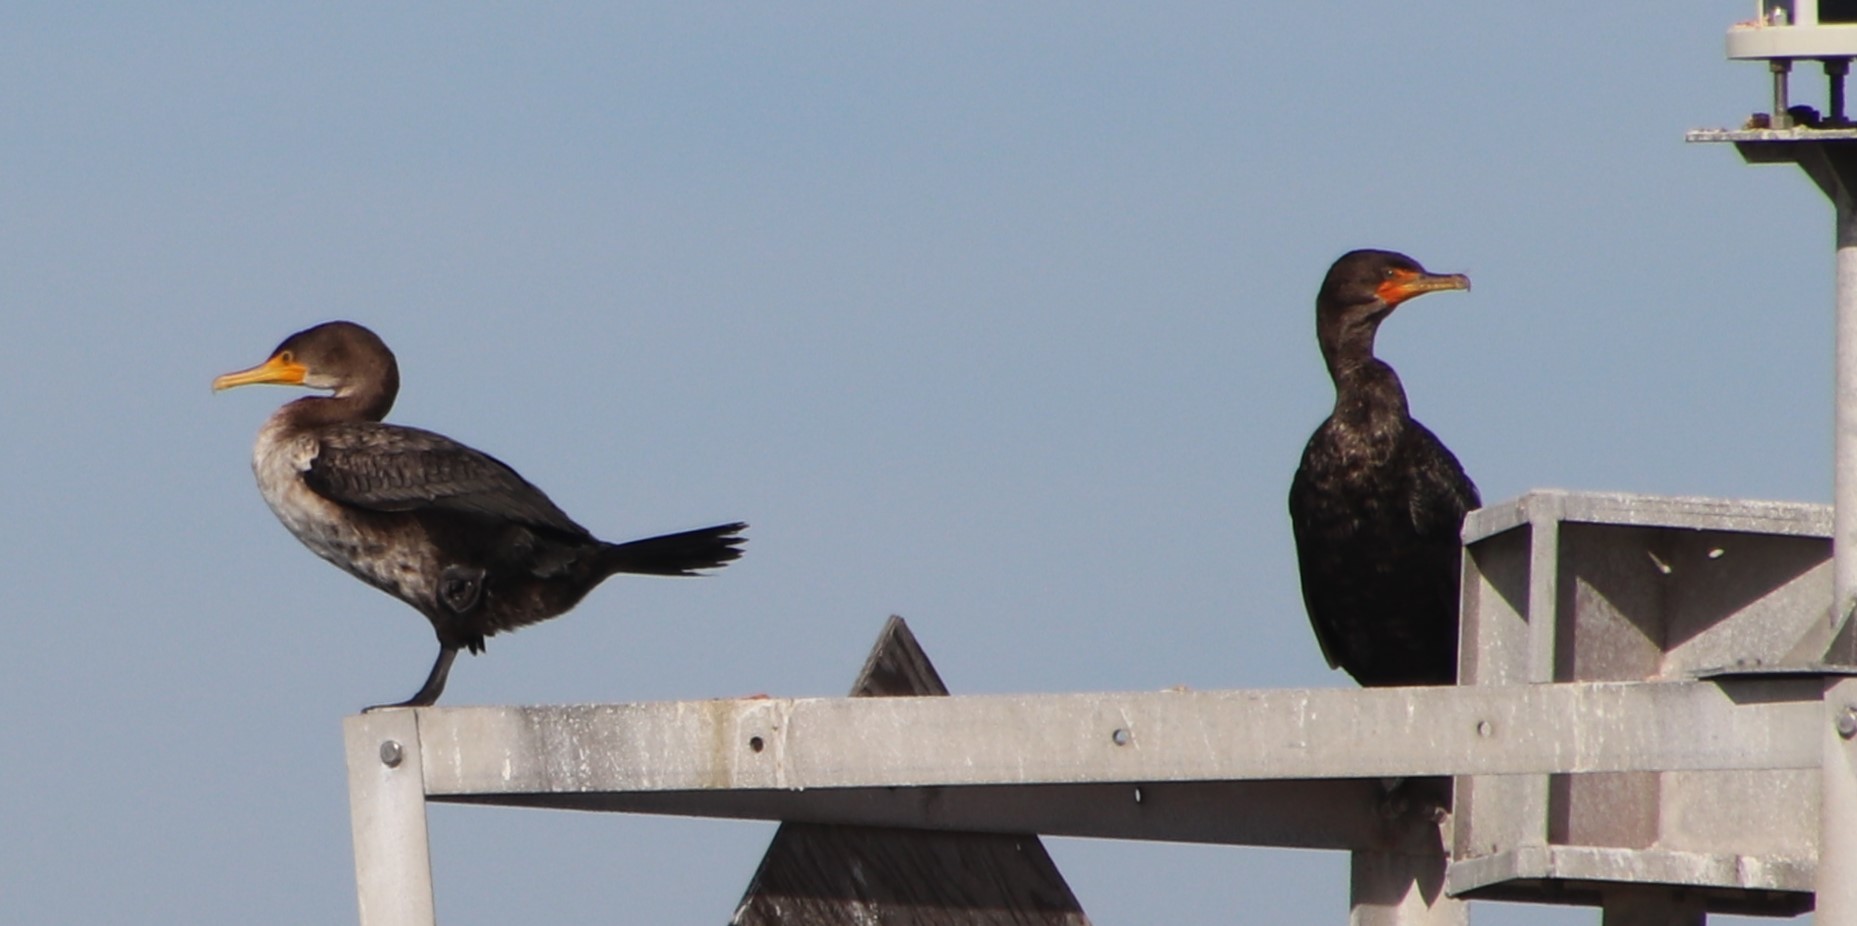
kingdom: Animalia
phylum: Chordata
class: Aves
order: Suliformes
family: Phalacrocoracidae
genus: Phalacrocorax
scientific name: Phalacrocorax auritus
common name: Double-crested cormorant
